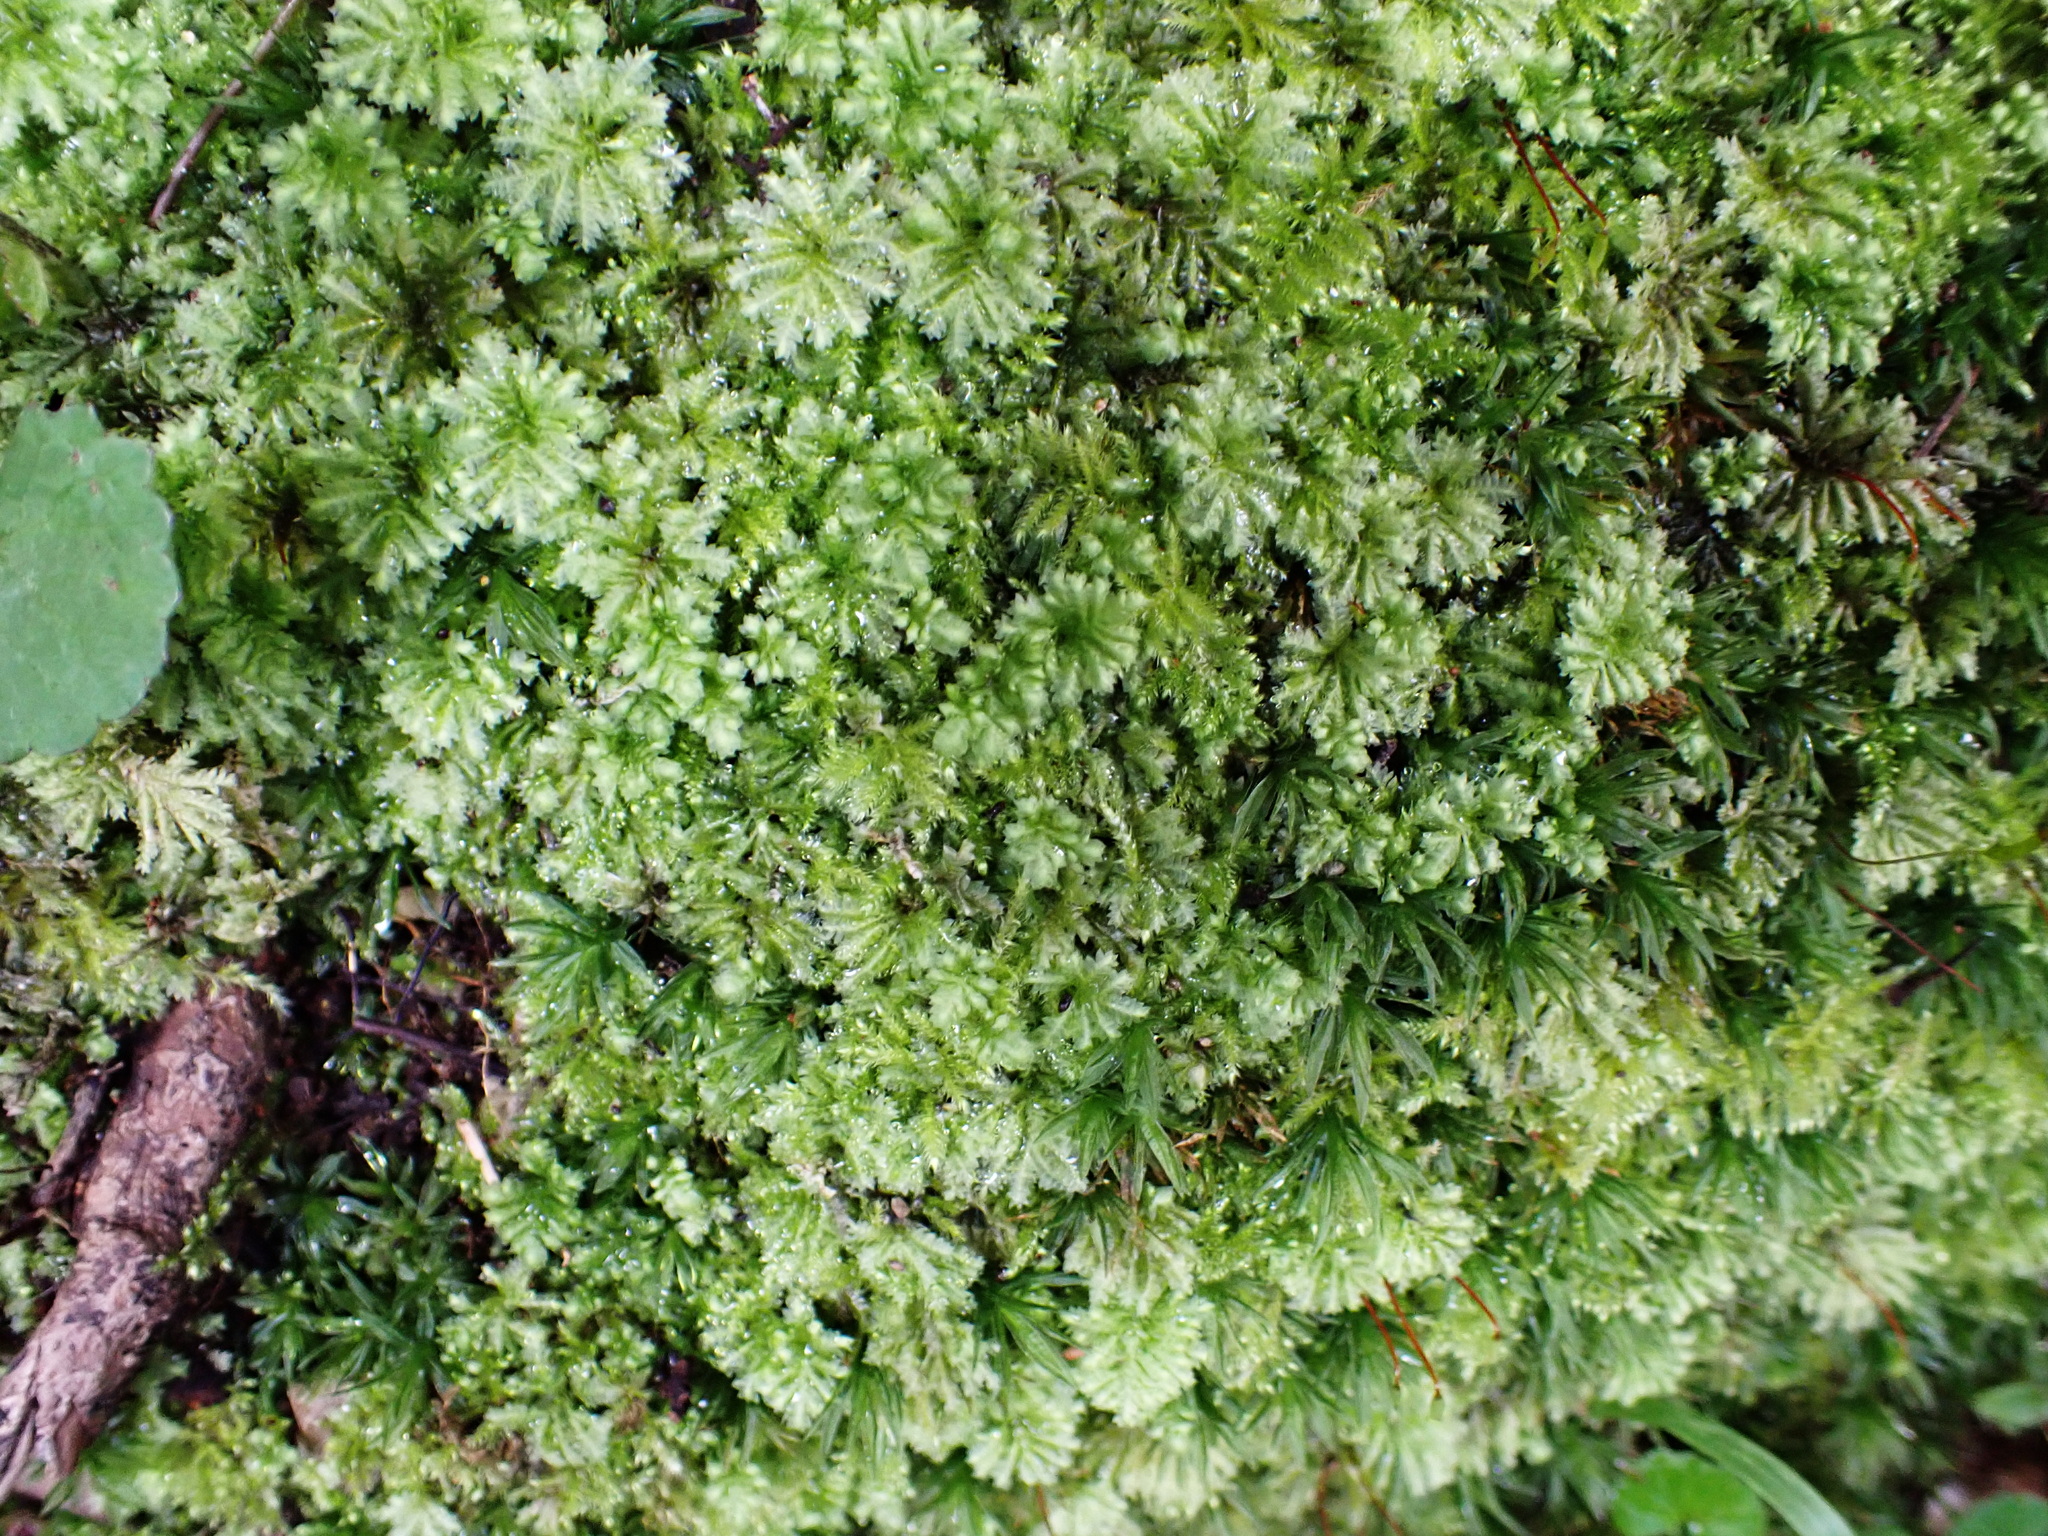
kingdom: Plantae
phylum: Bryophyta
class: Bryopsida
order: Hypopterygiales
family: Hypopterygiaceae
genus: Hypopterygium
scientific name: Hypopterygium tamarisci
